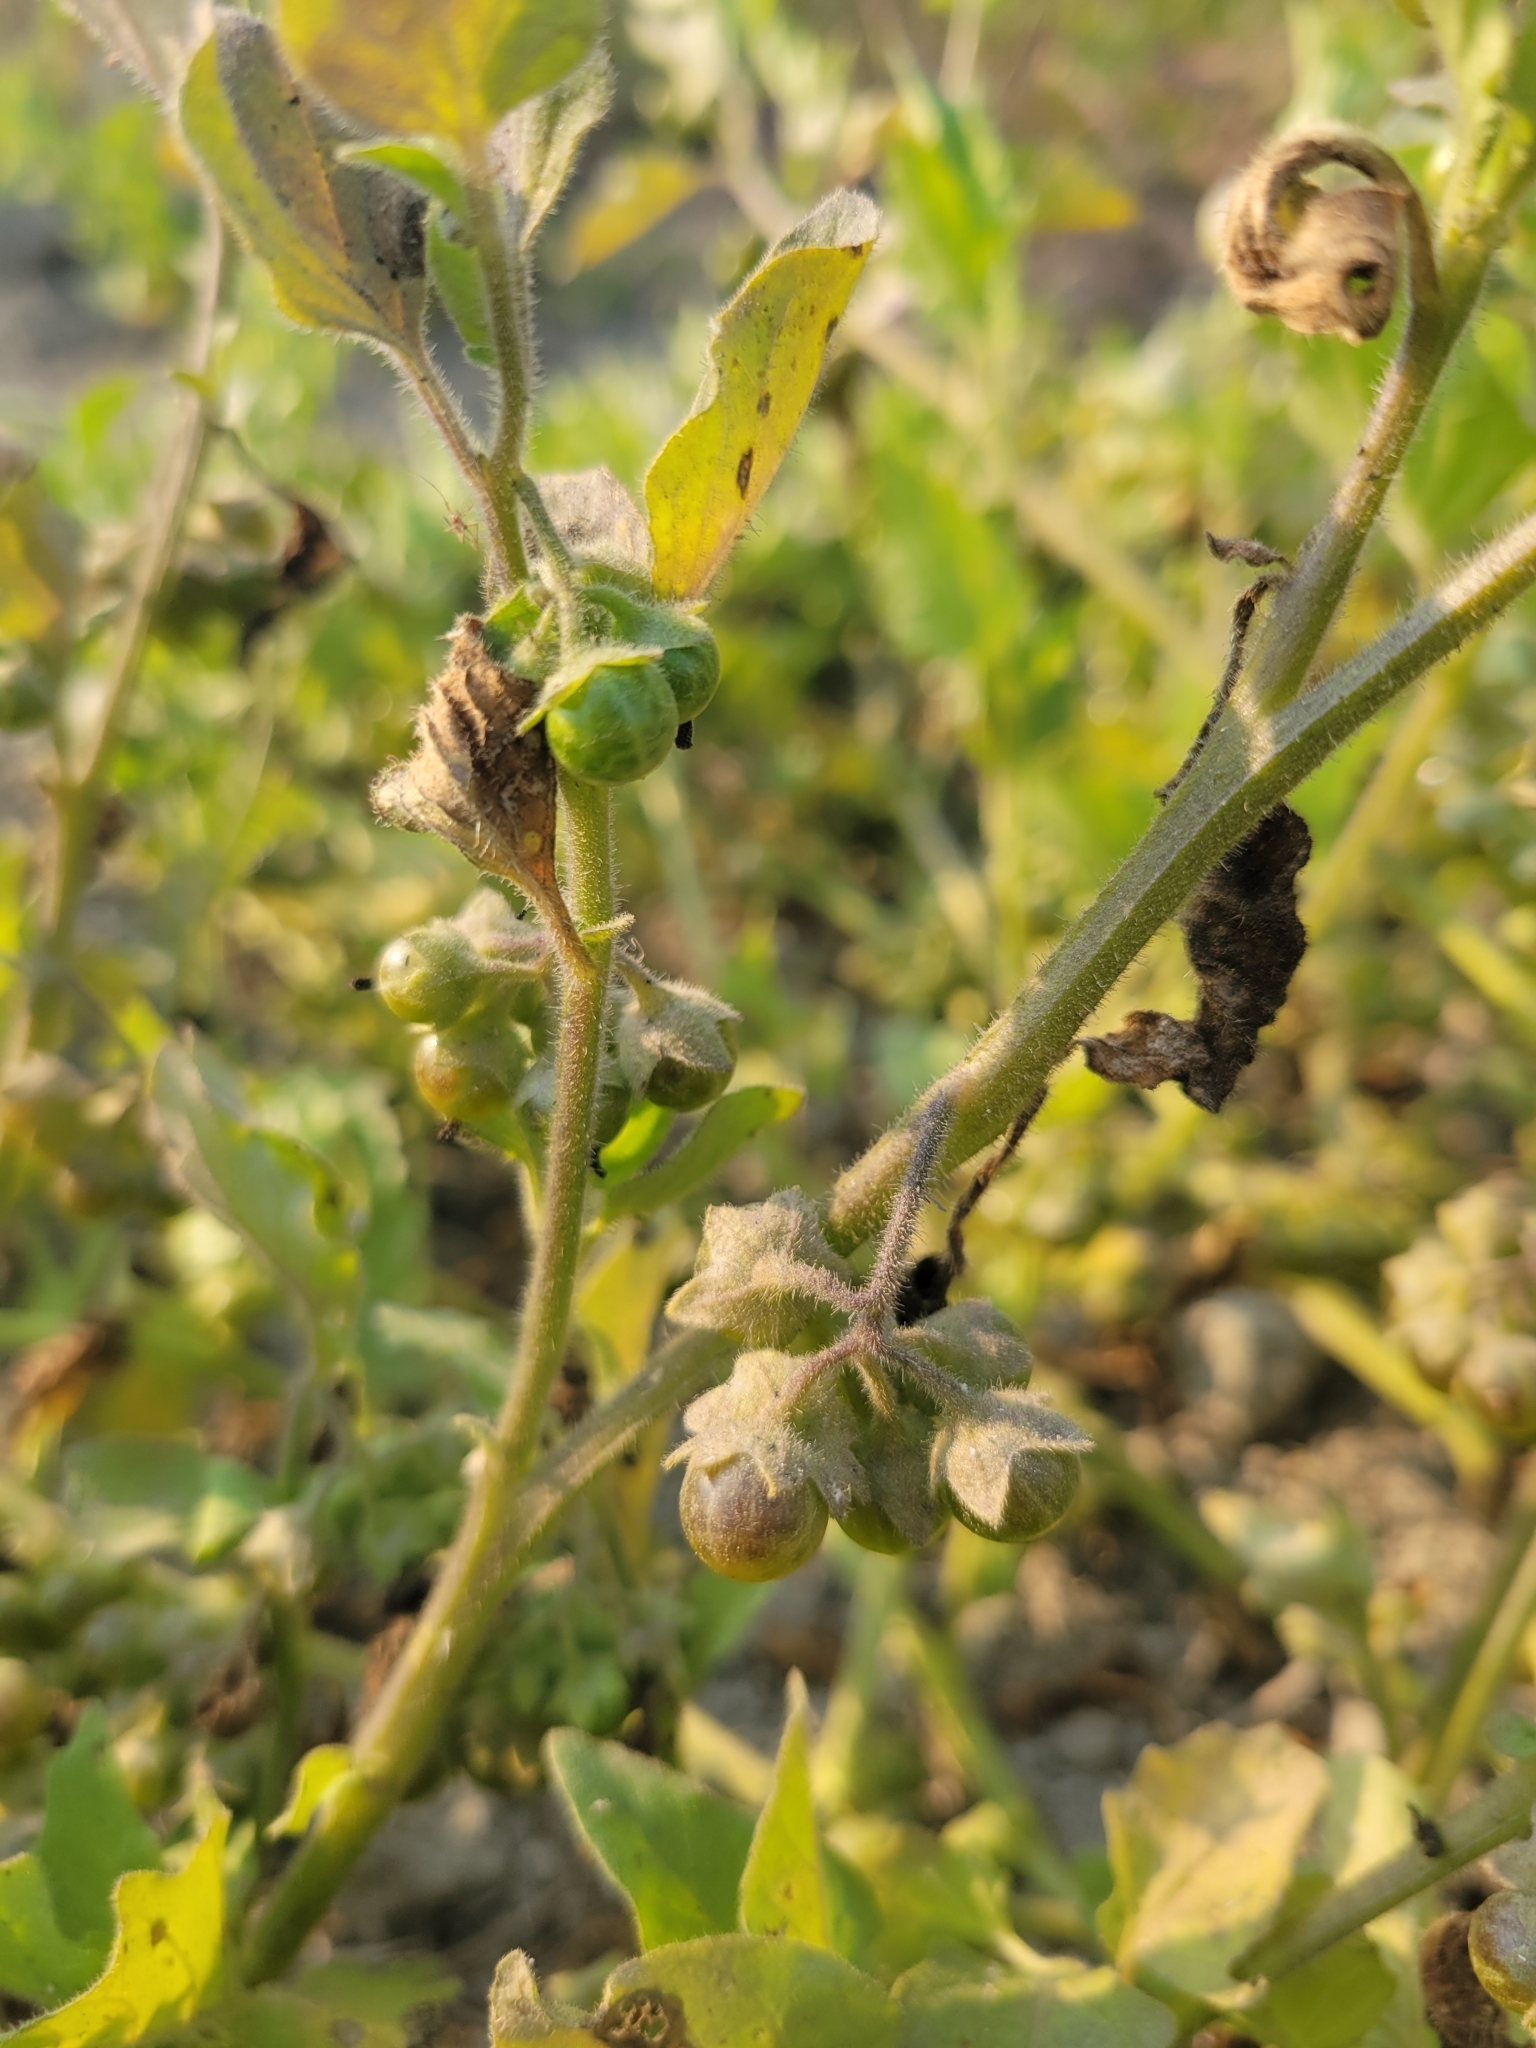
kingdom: Plantae
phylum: Tracheophyta
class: Magnoliopsida
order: Solanales
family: Solanaceae
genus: Solanum
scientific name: Solanum nitidibaccatum
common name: Hairy nightshade
